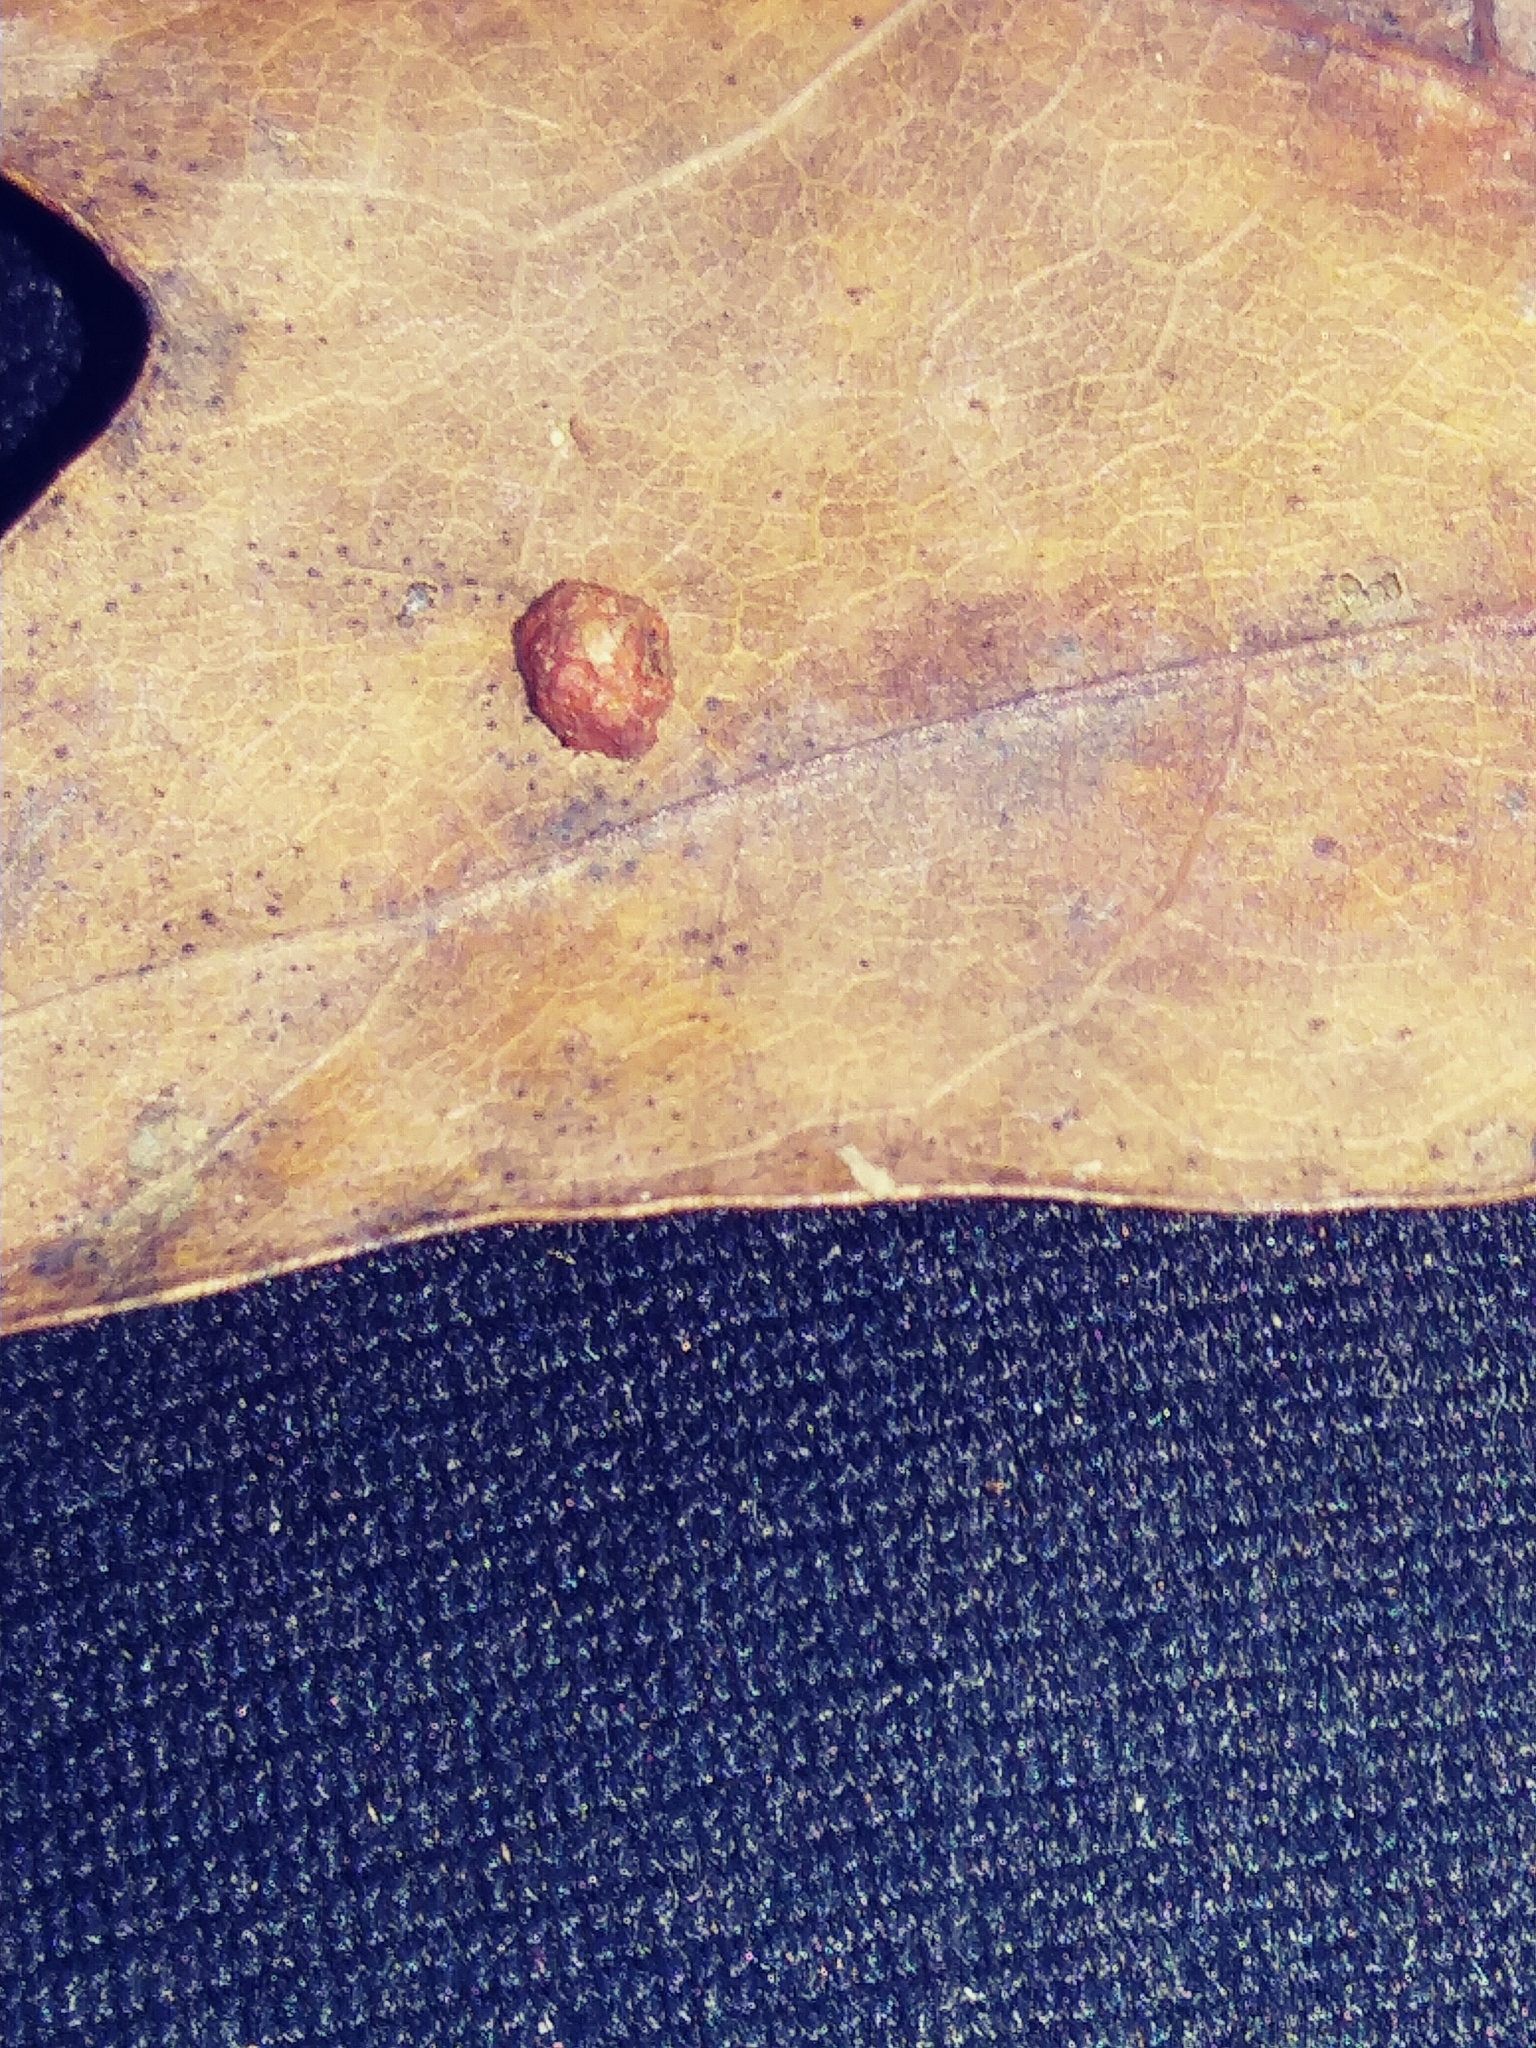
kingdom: Animalia
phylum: Arthropoda
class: Insecta
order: Diptera
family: Cecidomyiidae
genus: Polystepha
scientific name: Polystepha globosa
